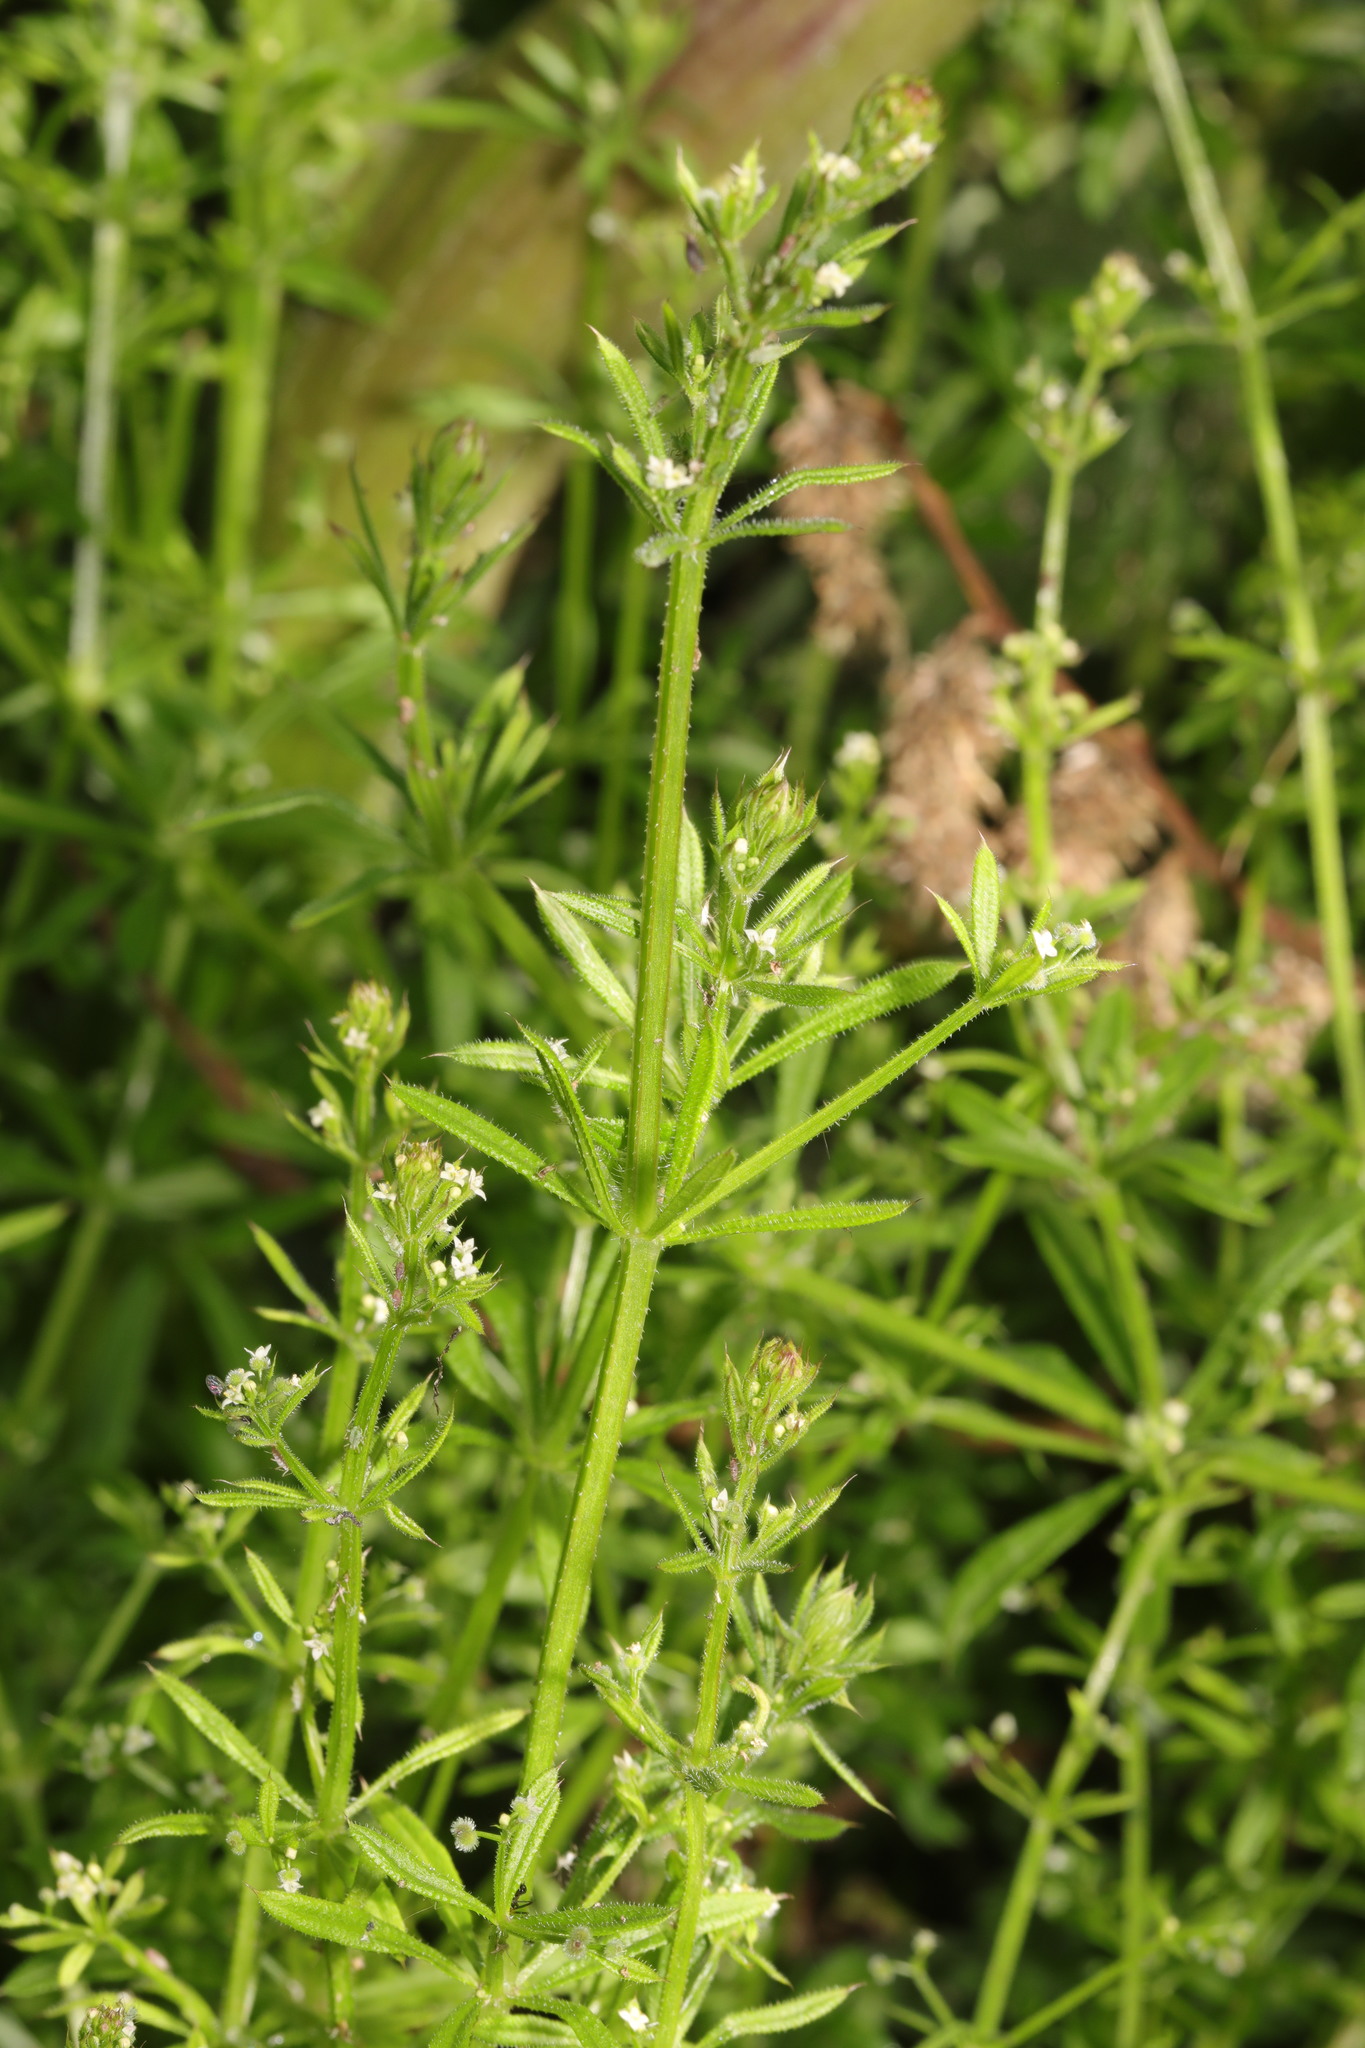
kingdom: Plantae
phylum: Tracheophyta
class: Magnoliopsida
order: Gentianales
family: Rubiaceae
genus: Galium
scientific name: Galium aparine
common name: Cleavers
